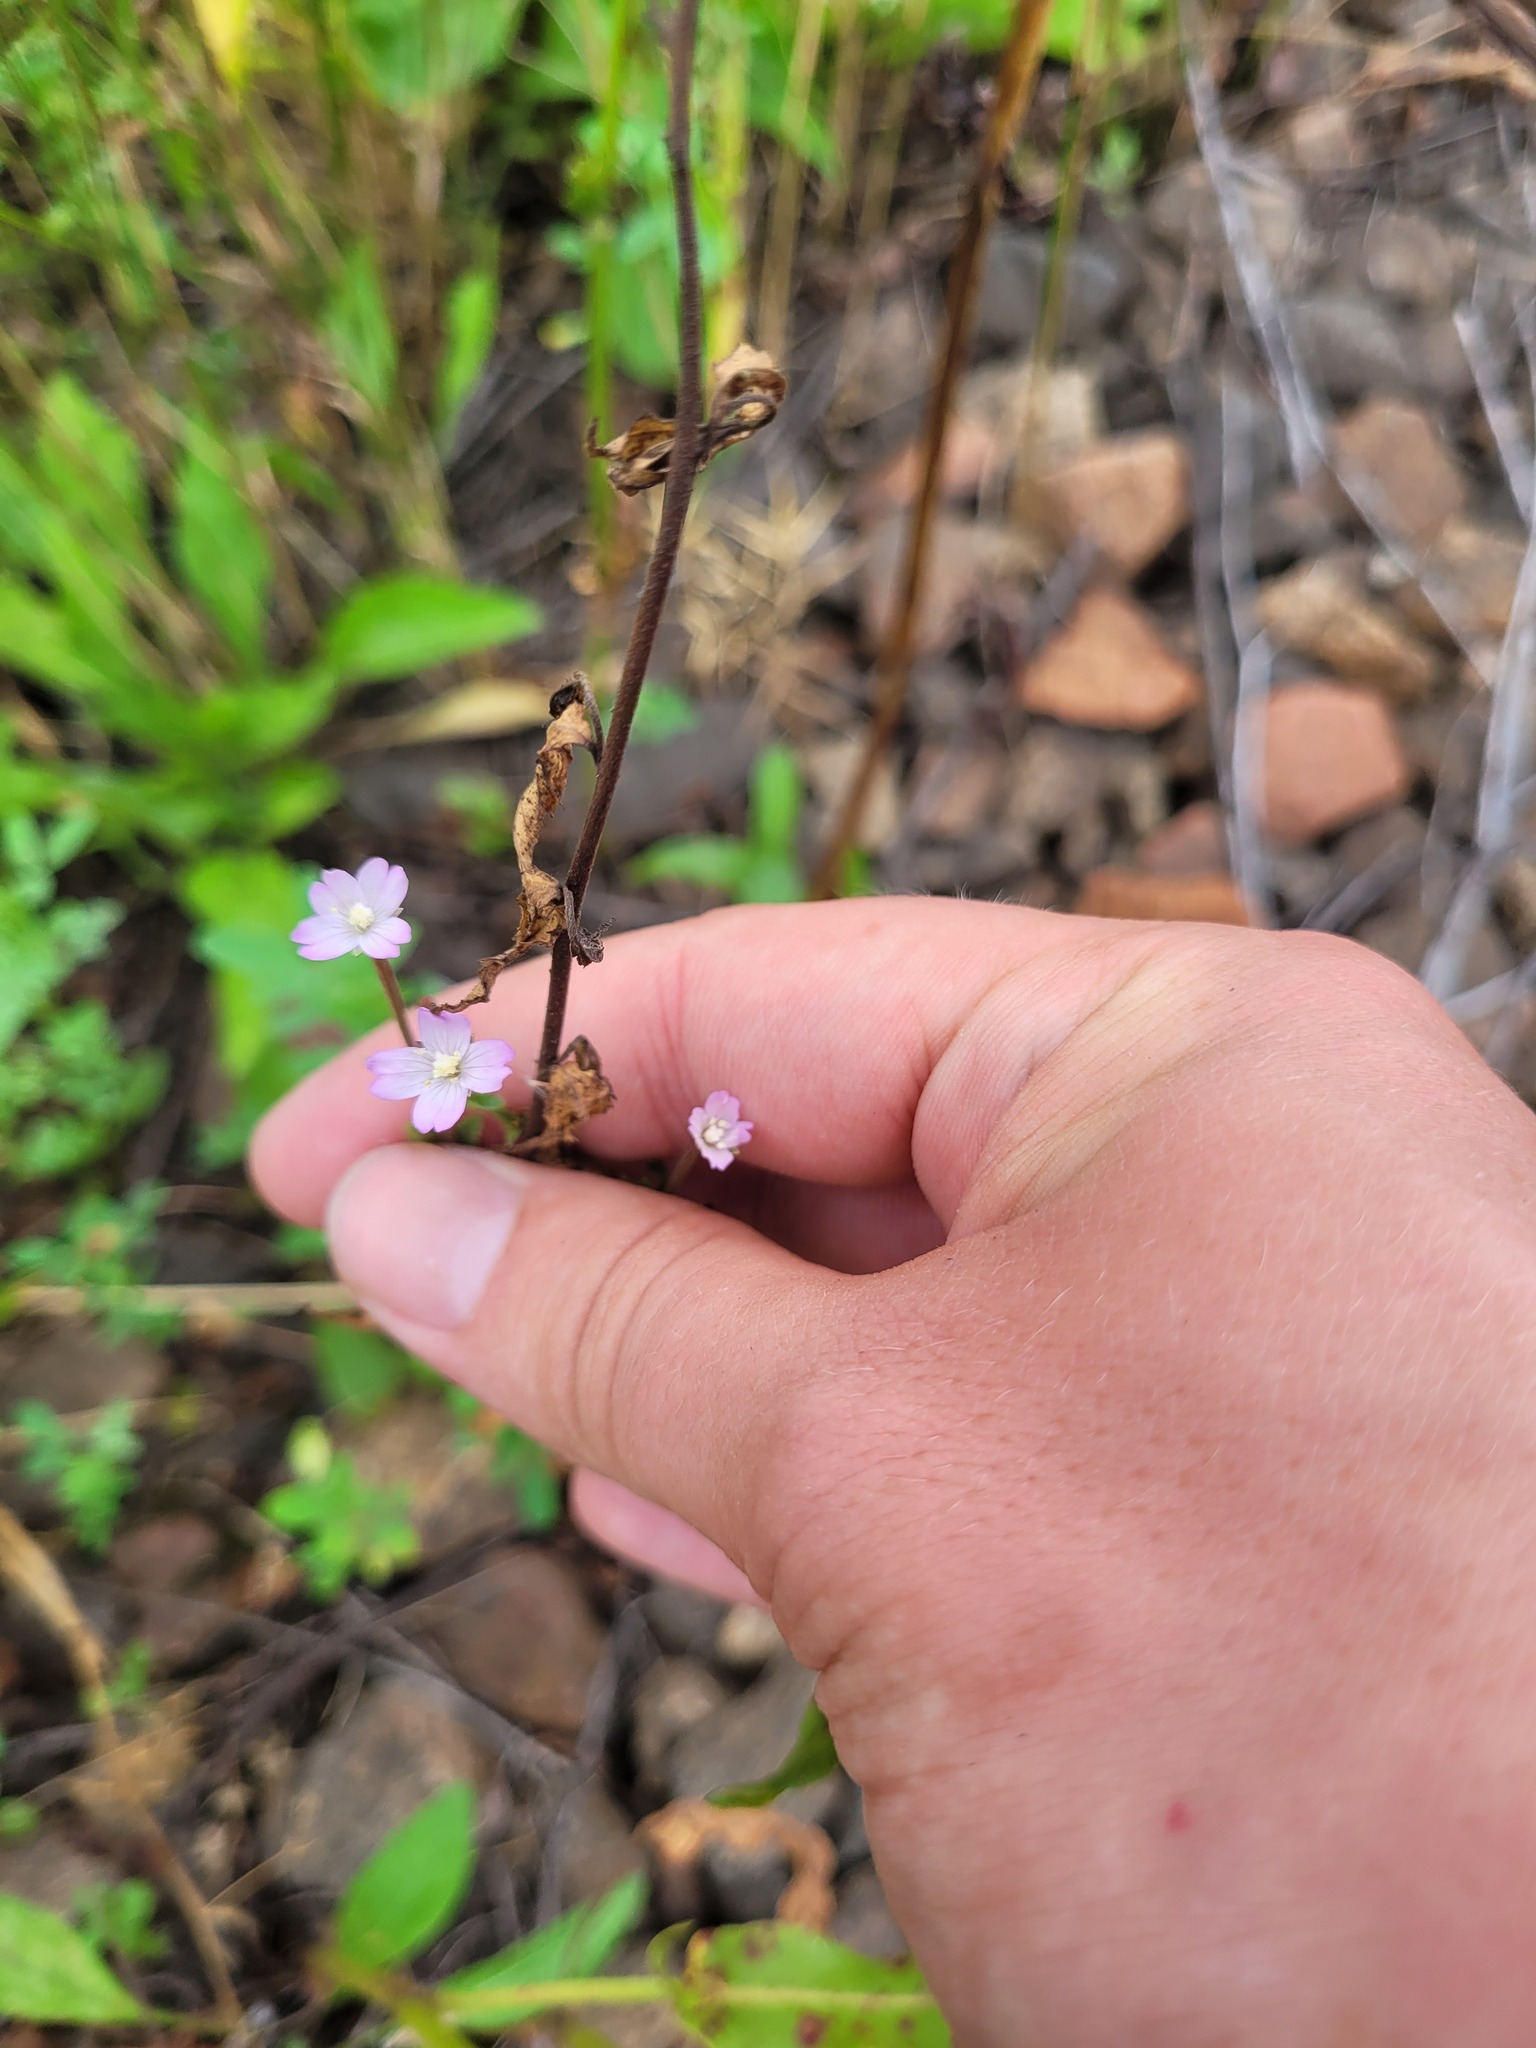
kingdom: Plantae
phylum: Tracheophyta
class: Magnoliopsida
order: Myrtales
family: Onagraceae
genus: Epilobium
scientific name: Epilobium montanum
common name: Broad-leaved willowherb
